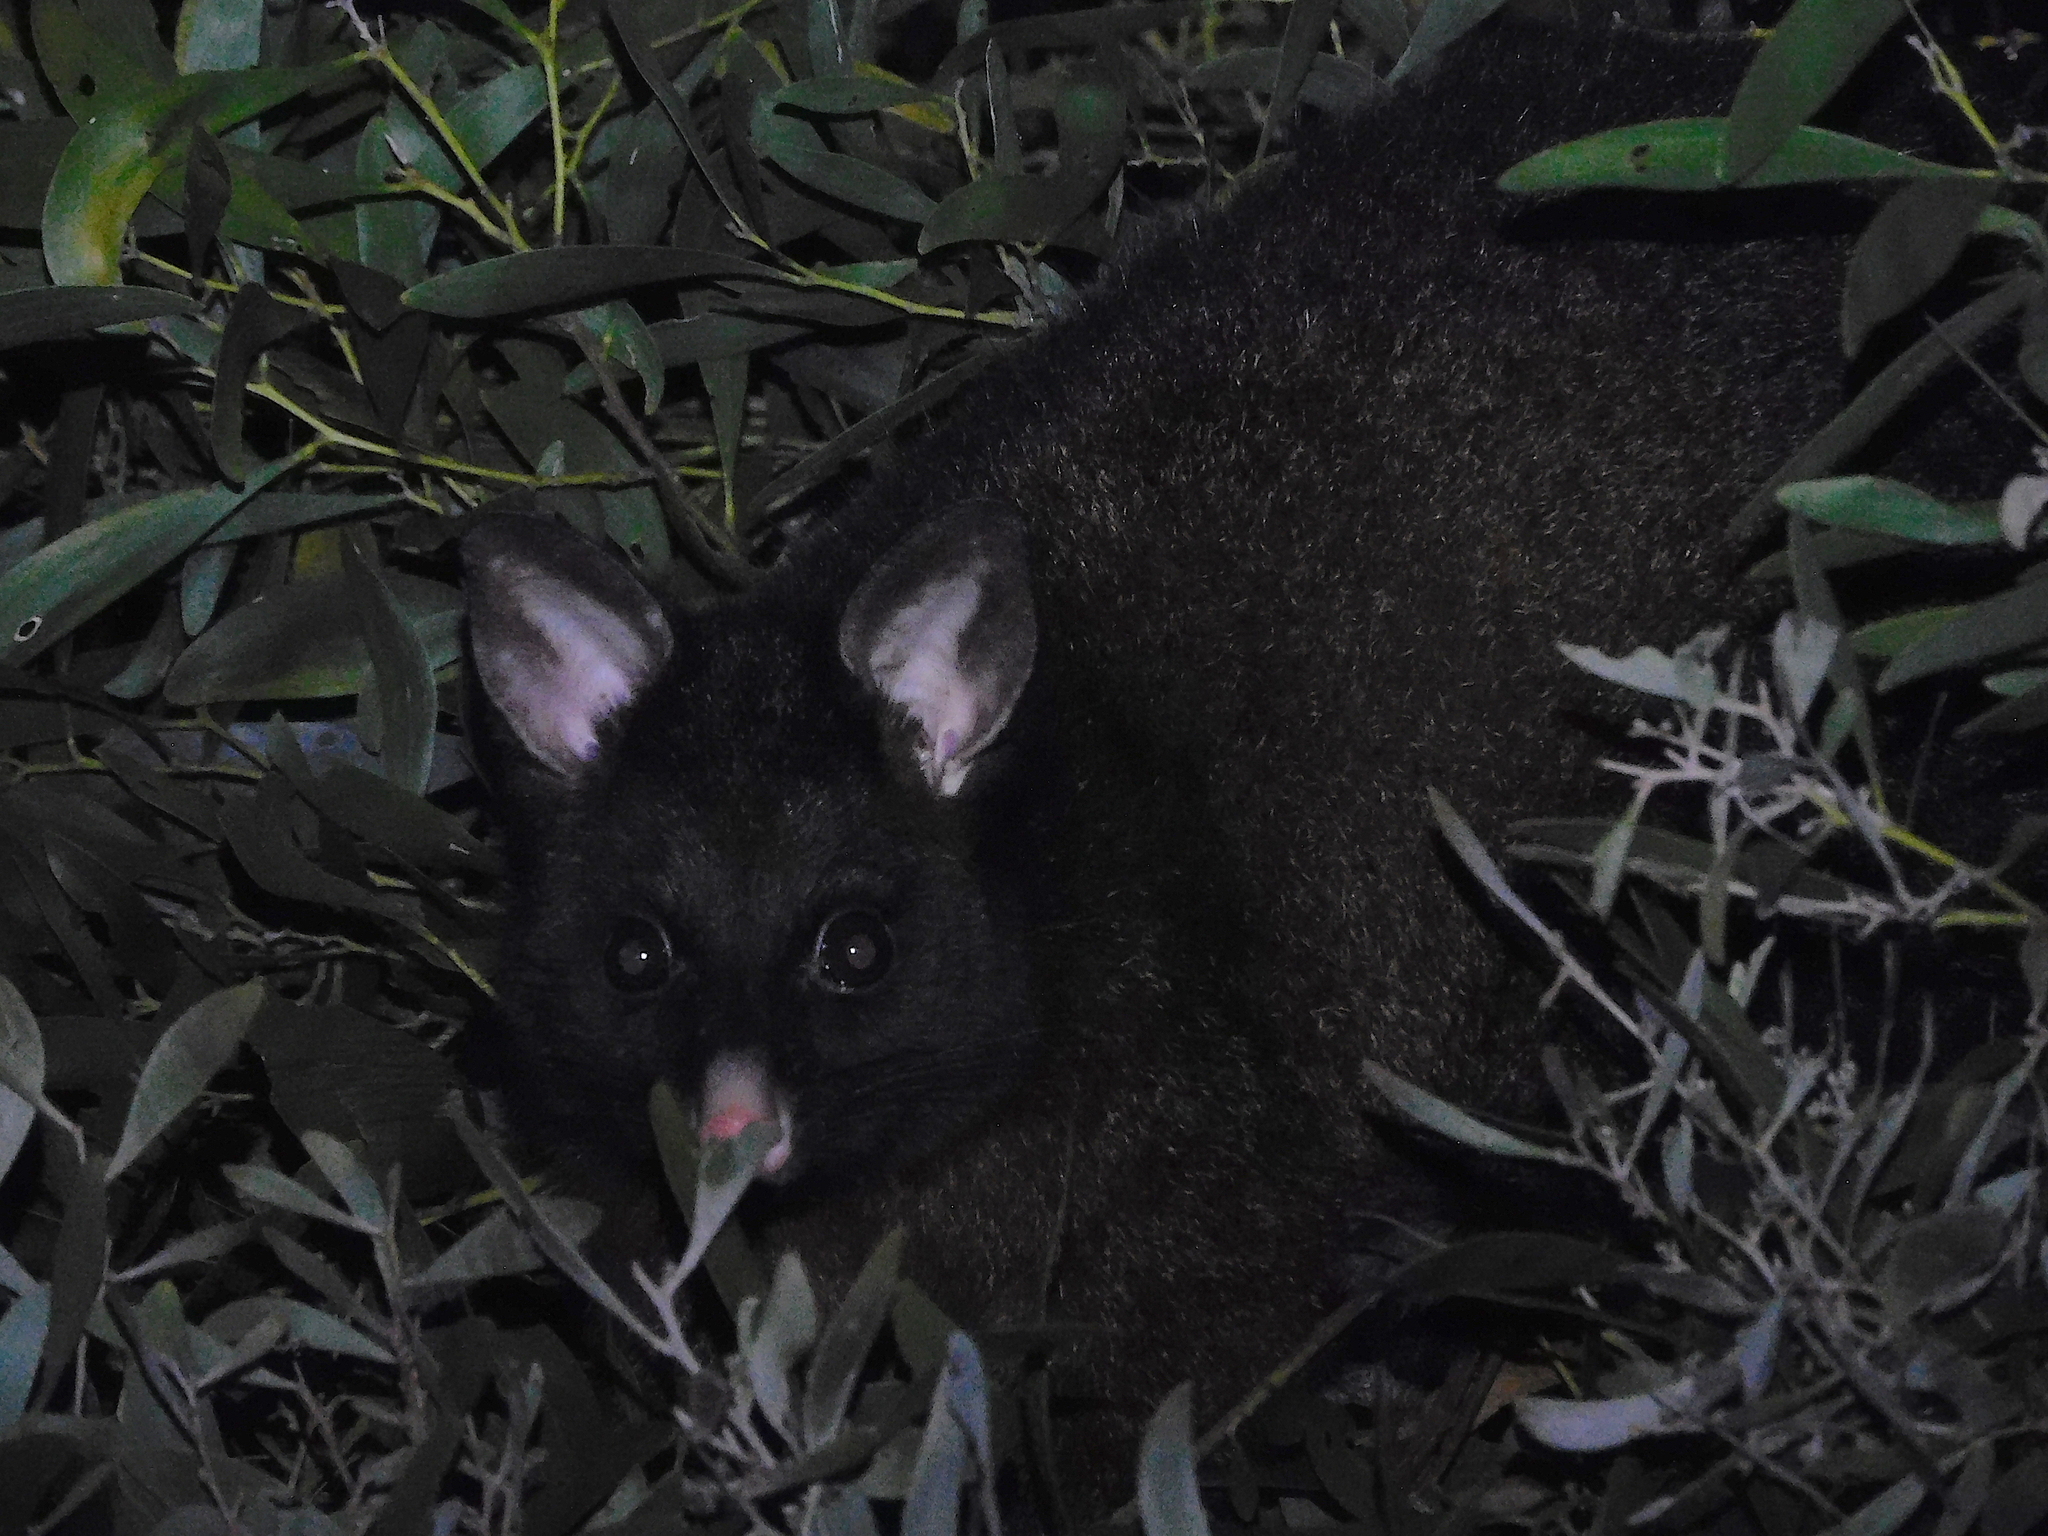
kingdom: Animalia
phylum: Chordata
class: Mammalia
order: Diprotodontia
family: Phalangeridae
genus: Trichosurus
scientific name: Trichosurus vulpecula
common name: Common brushtail
